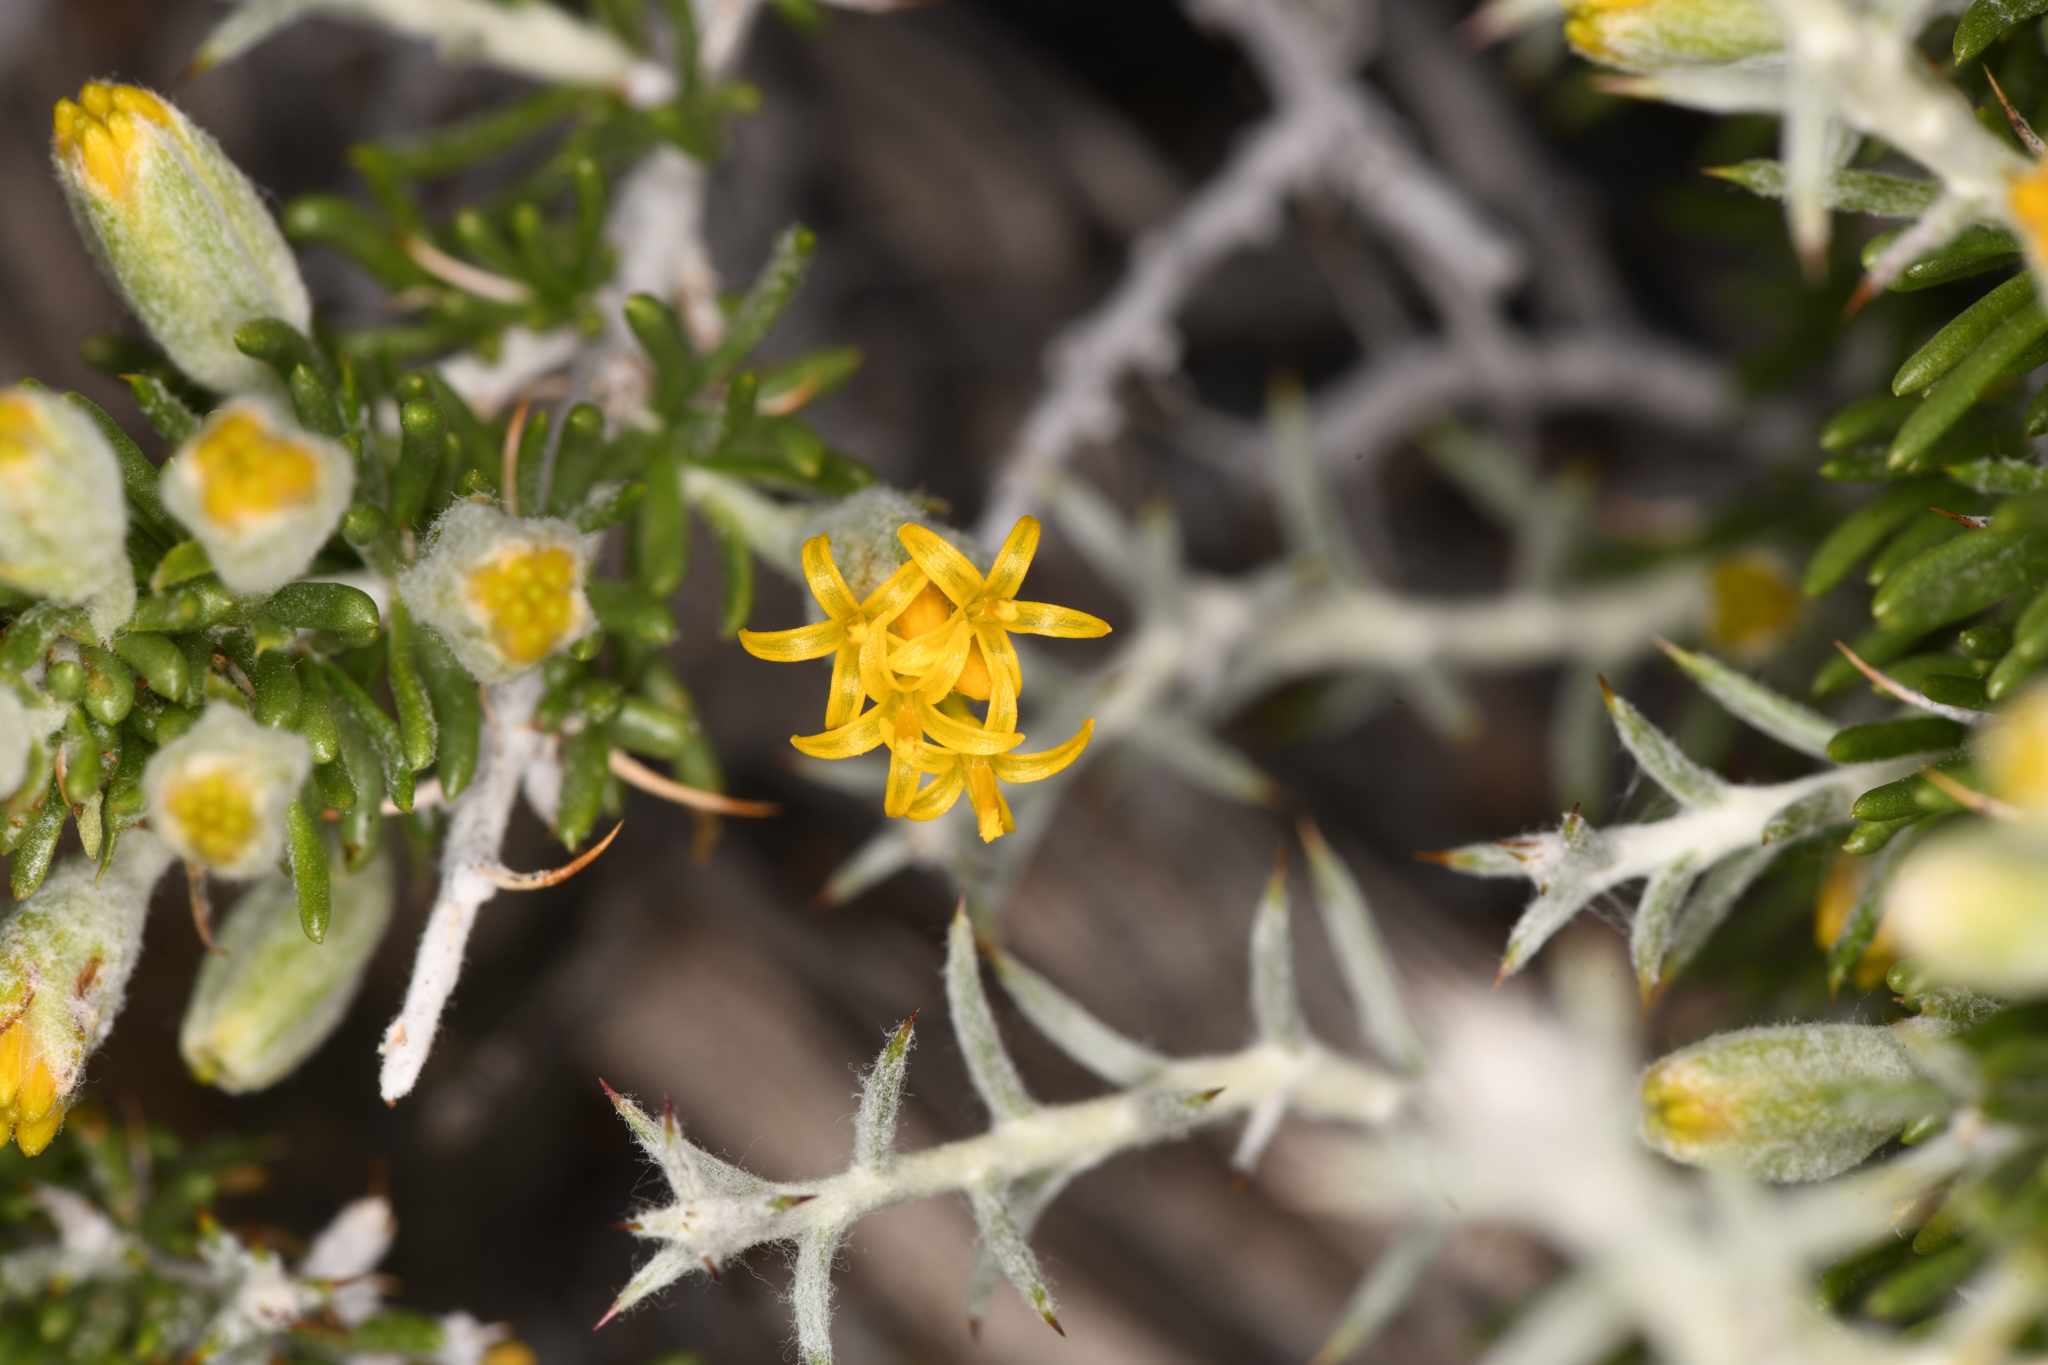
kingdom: Plantae
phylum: Tracheophyta
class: Magnoliopsida
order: Asterales
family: Asteraceae
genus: Tetradymia
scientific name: Tetradymia spinosa
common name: Thorny horsebrush
